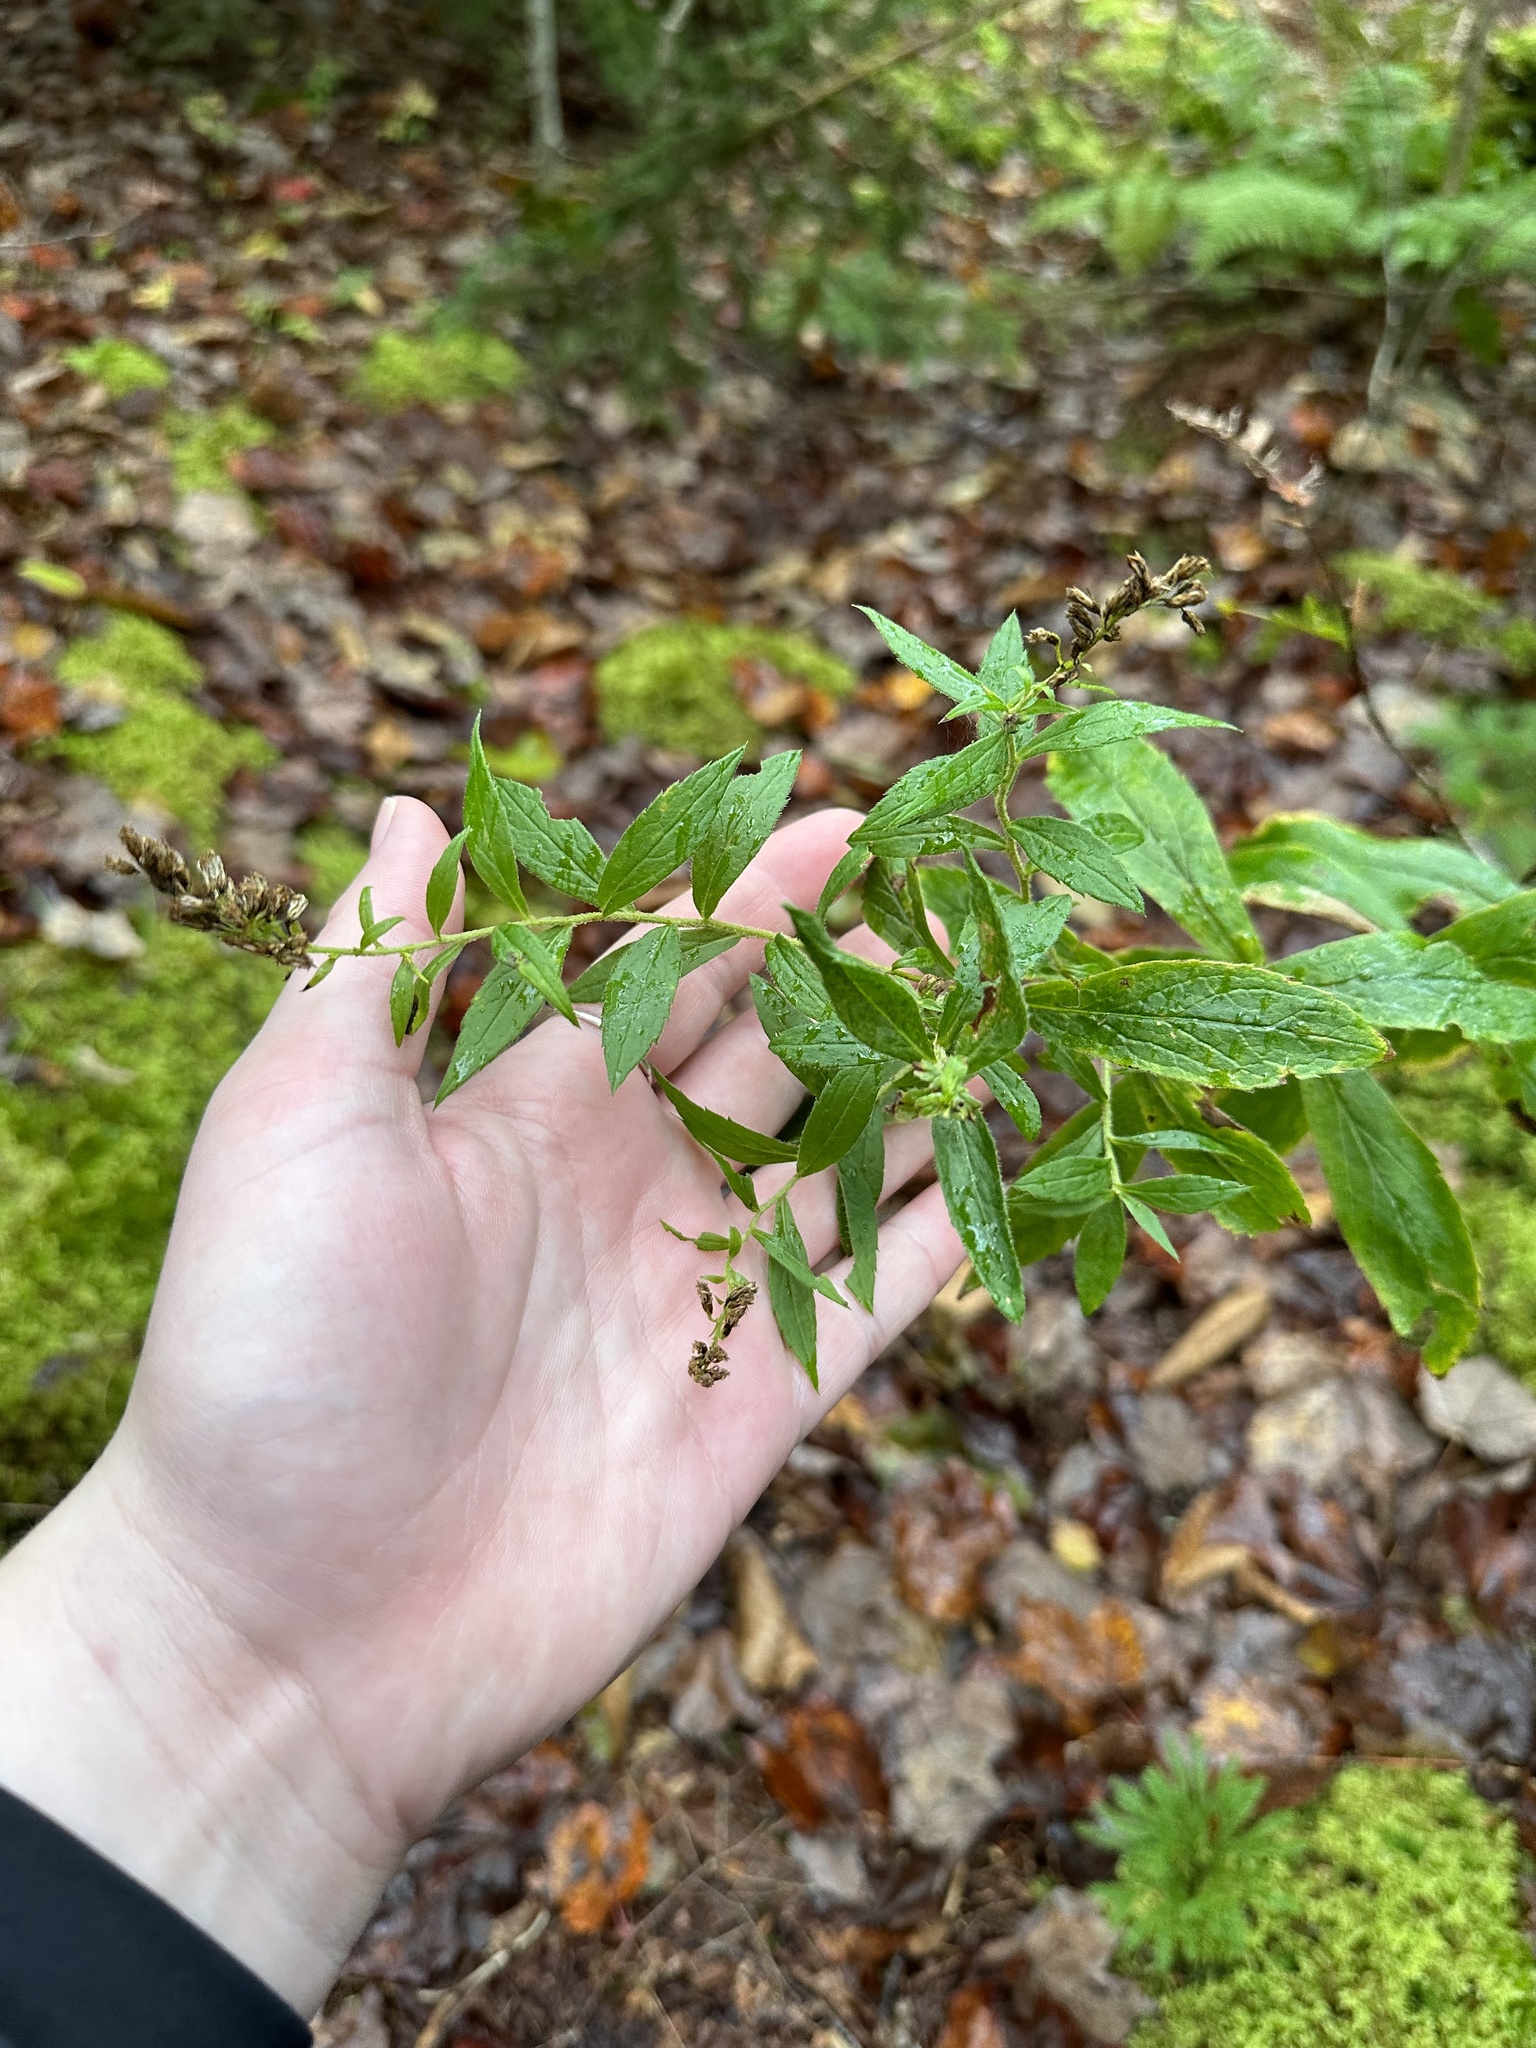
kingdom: Plantae
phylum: Tracheophyta
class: Magnoliopsida
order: Asterales
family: Asteraceae
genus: Solidago
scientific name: Solidago rugosa
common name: Rough-stemmed goldenrod
